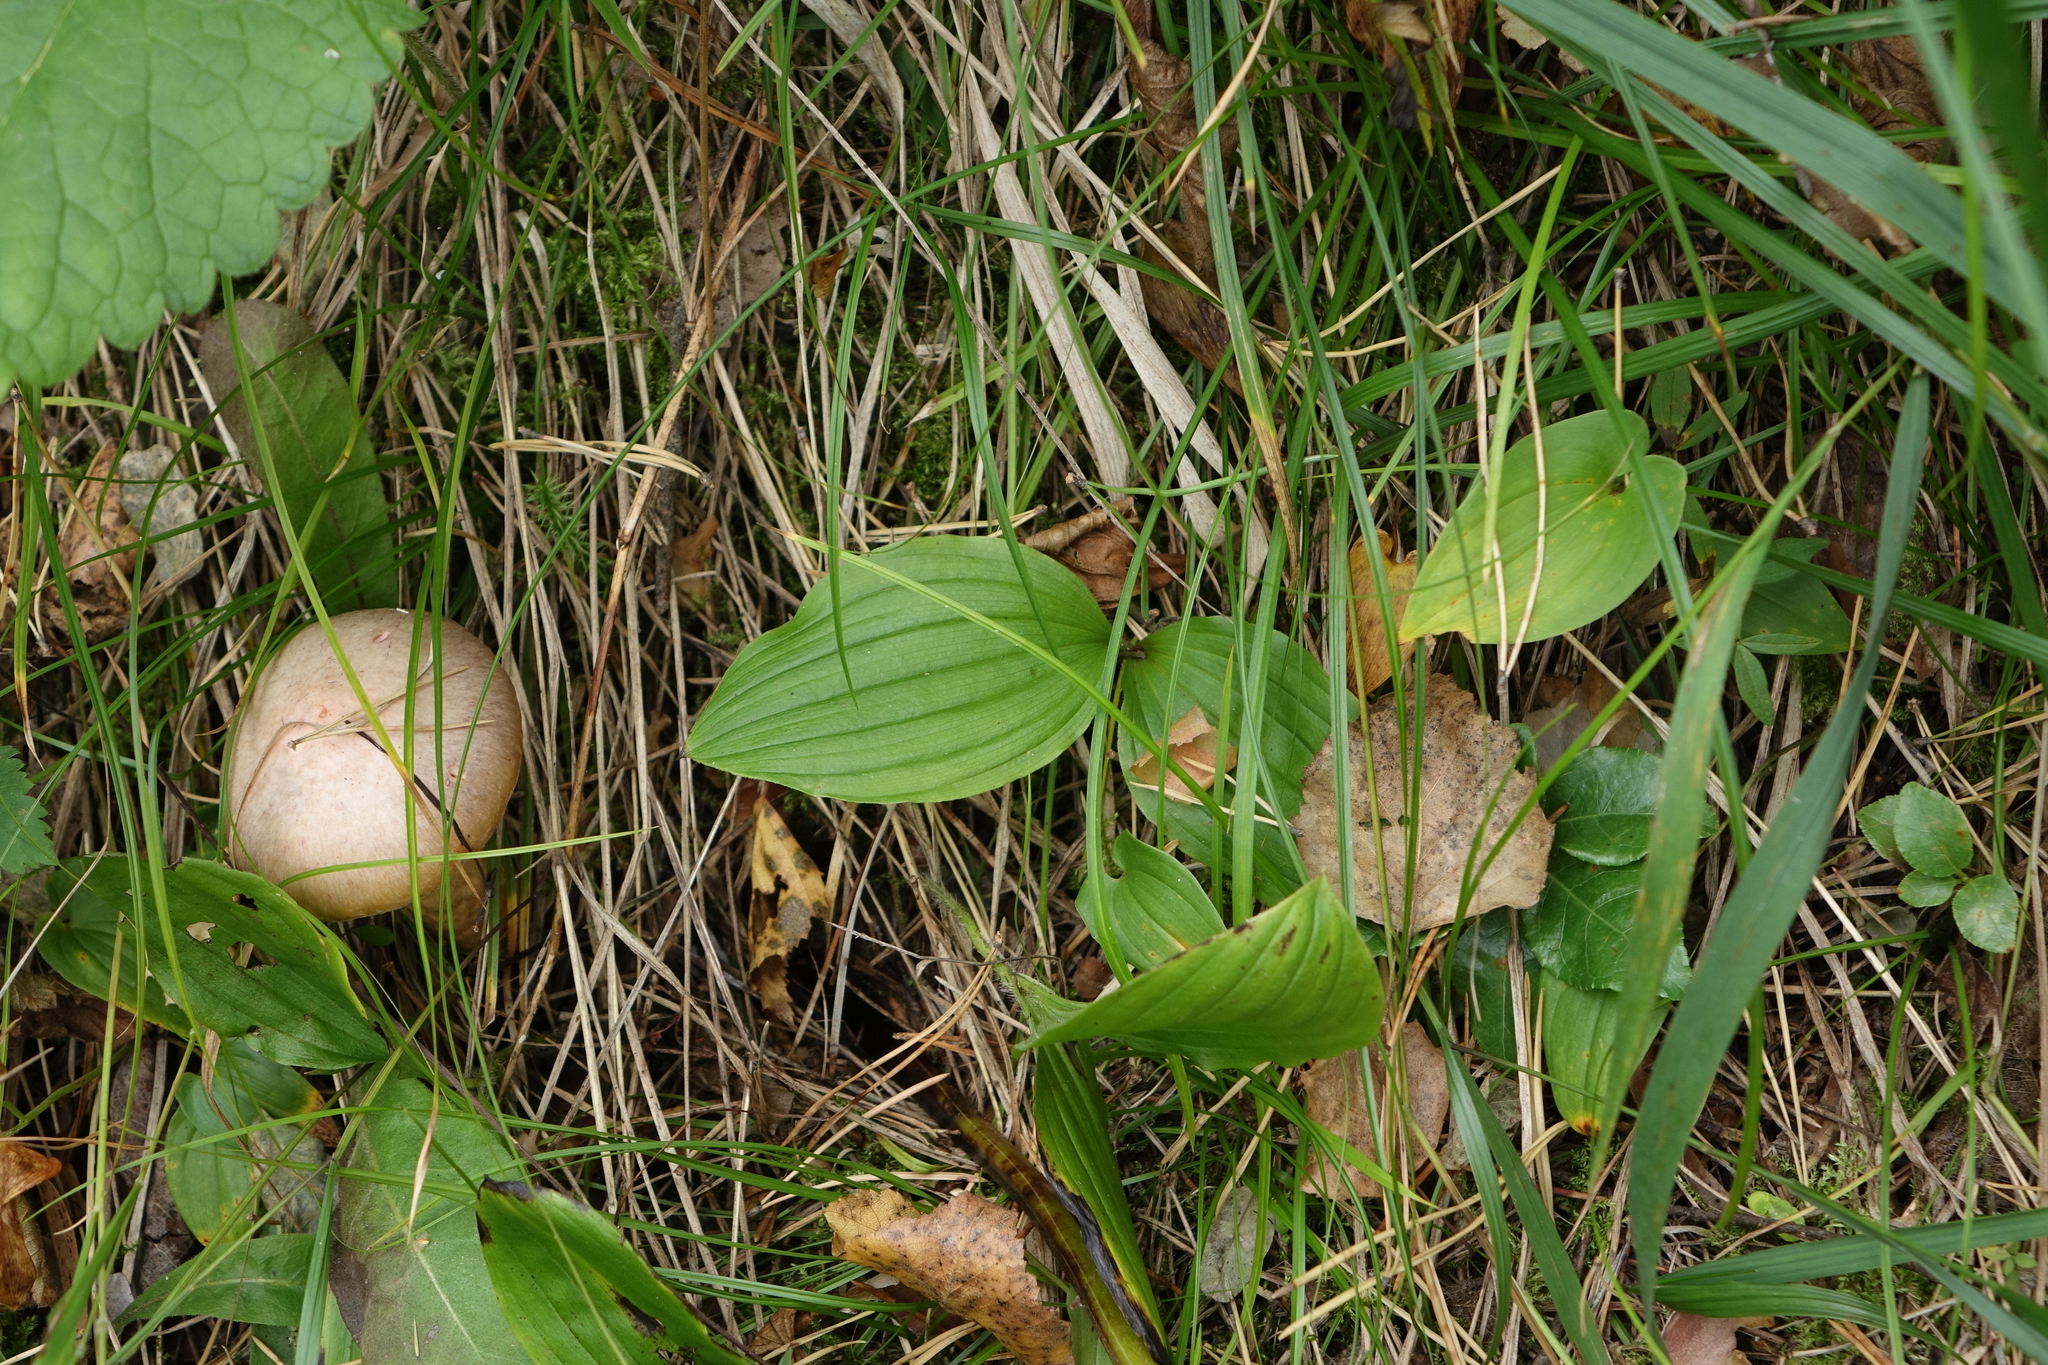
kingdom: Plantae
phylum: Tracheophyta
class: Liliopsida
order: Asparagales
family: Orchidaceae
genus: Cypripedium
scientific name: Cypripedium guttatum
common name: Pink lady slipper
